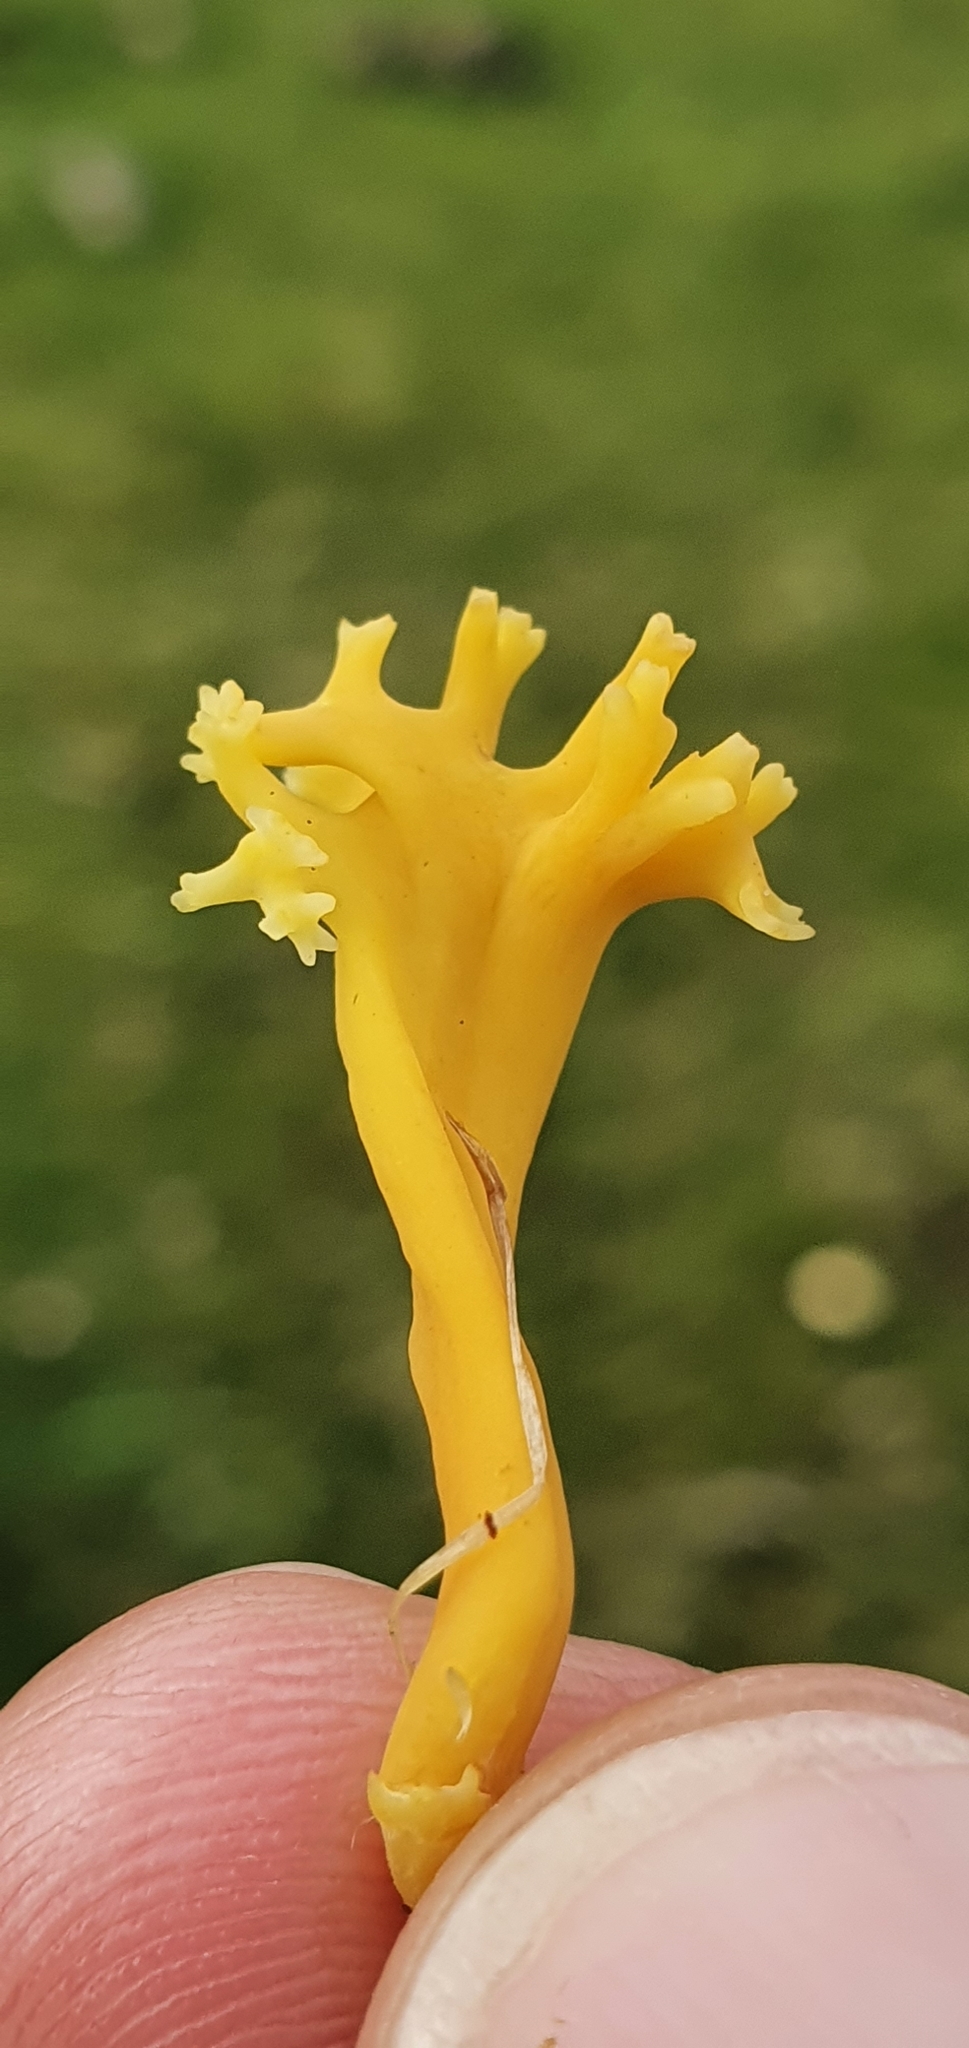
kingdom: Fungi
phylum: Basidiomycota
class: Agaricomycetes
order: Agaricales
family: Clavariaceae
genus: Clavulinopsis
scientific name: Clavulinopsis corniculata
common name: Meadow coral
